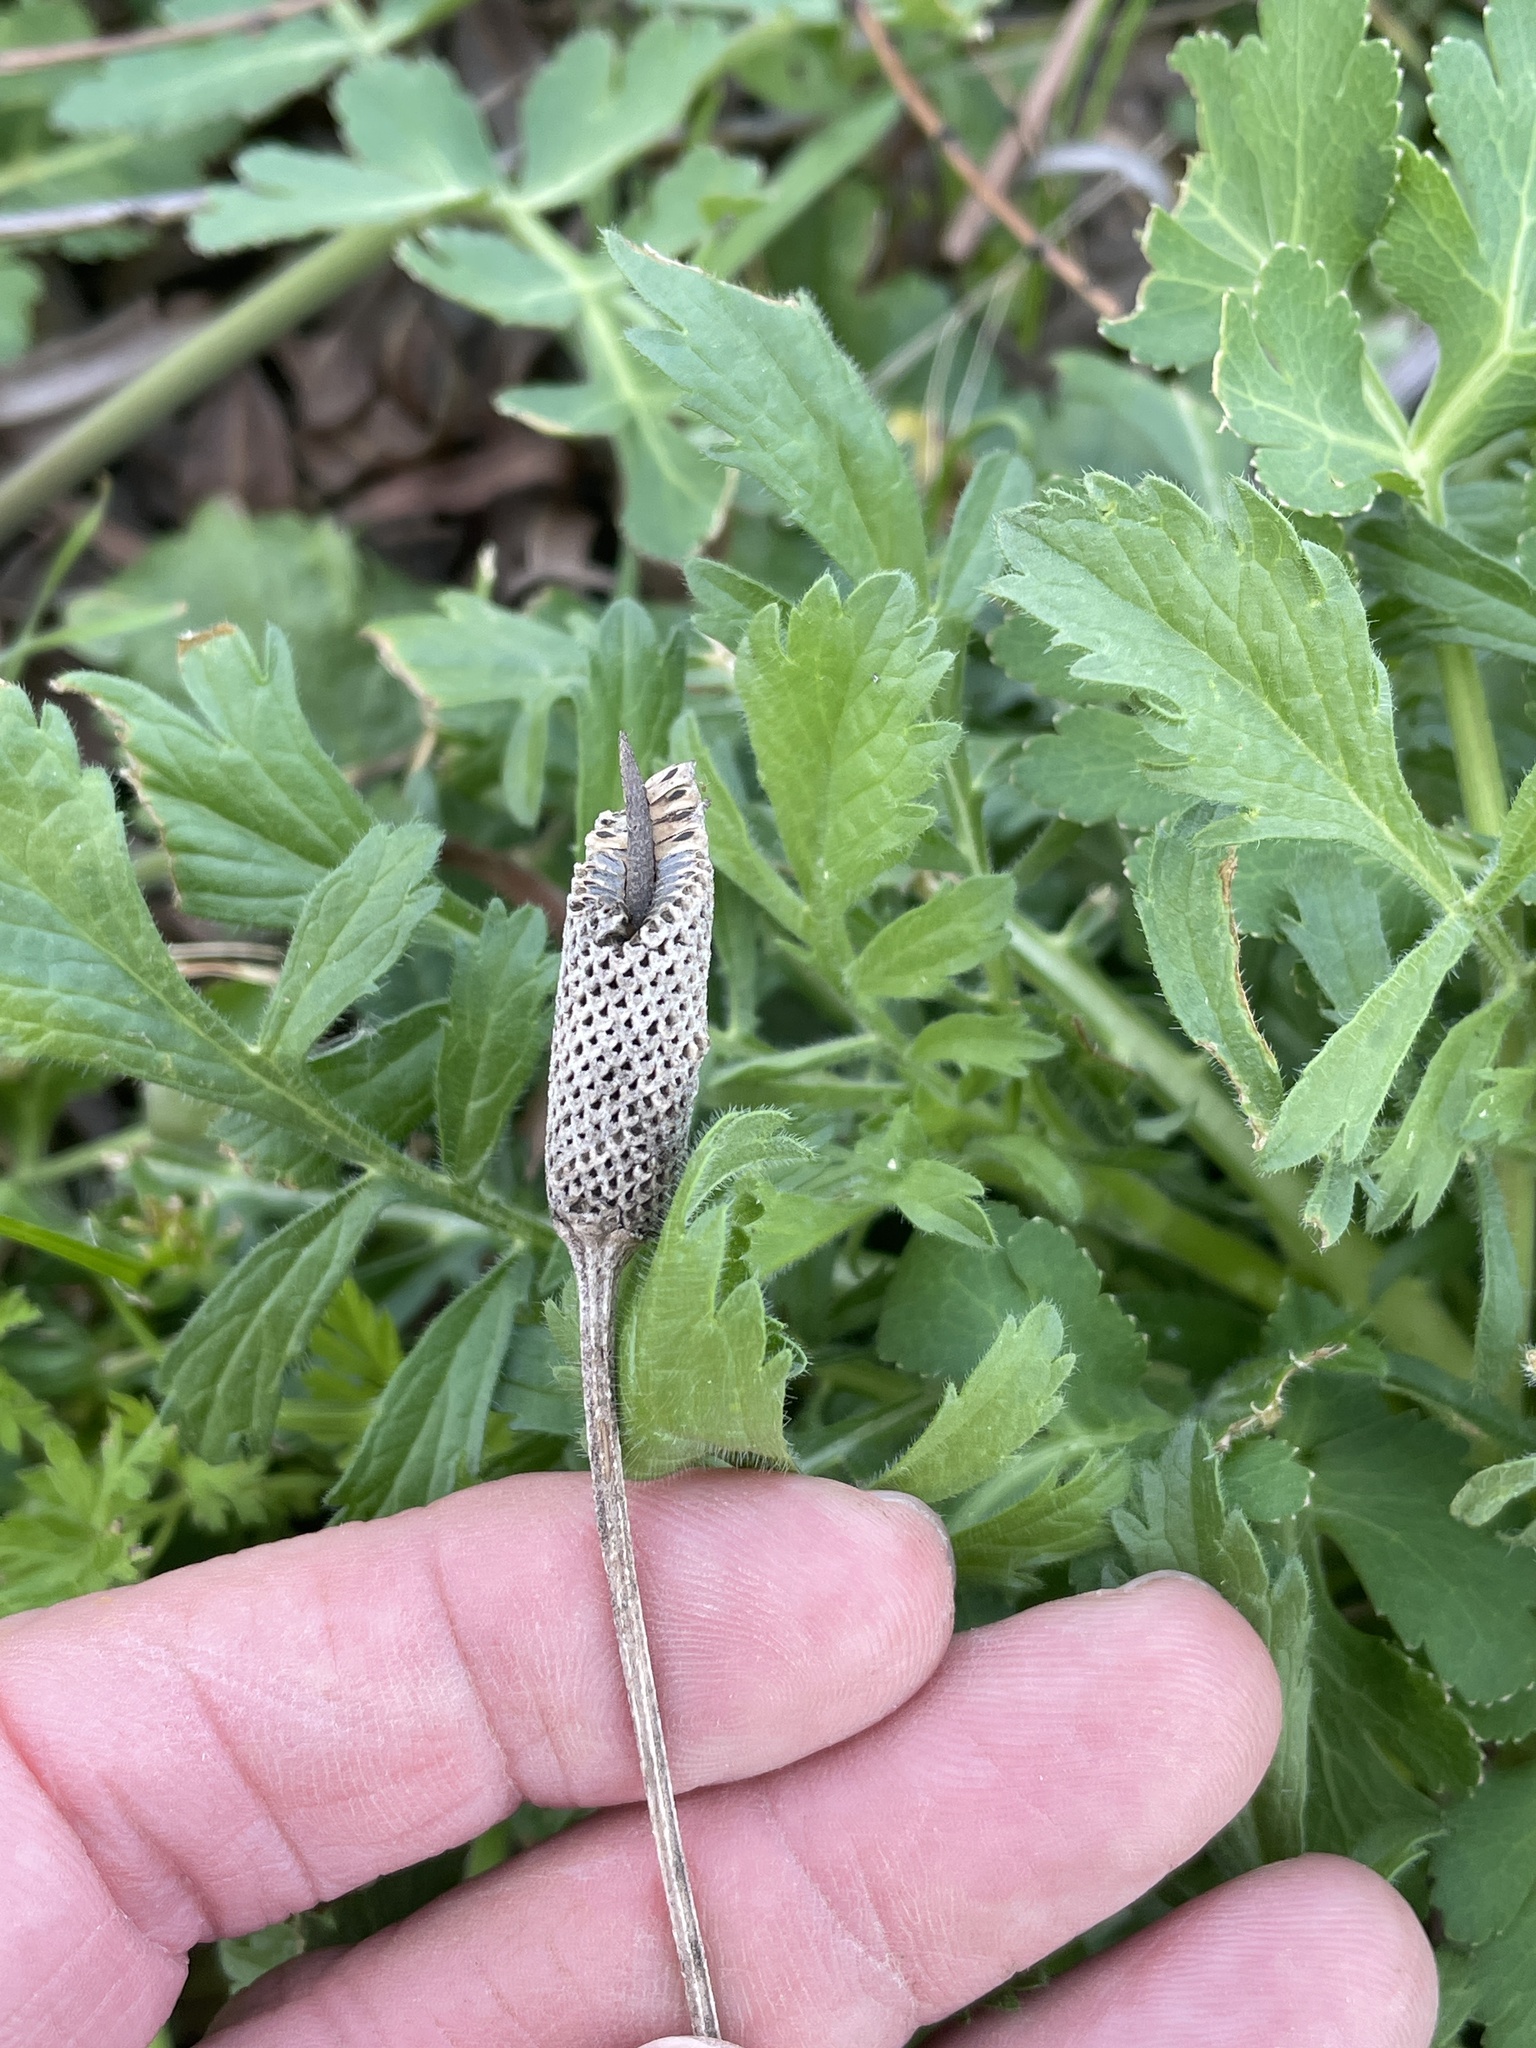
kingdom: Plantae
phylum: Tracheophyta
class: Magnoliopsida
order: Asterales
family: Asteraceae
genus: Ratibida
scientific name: Ratibida columnifera
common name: Prairie coneflower
